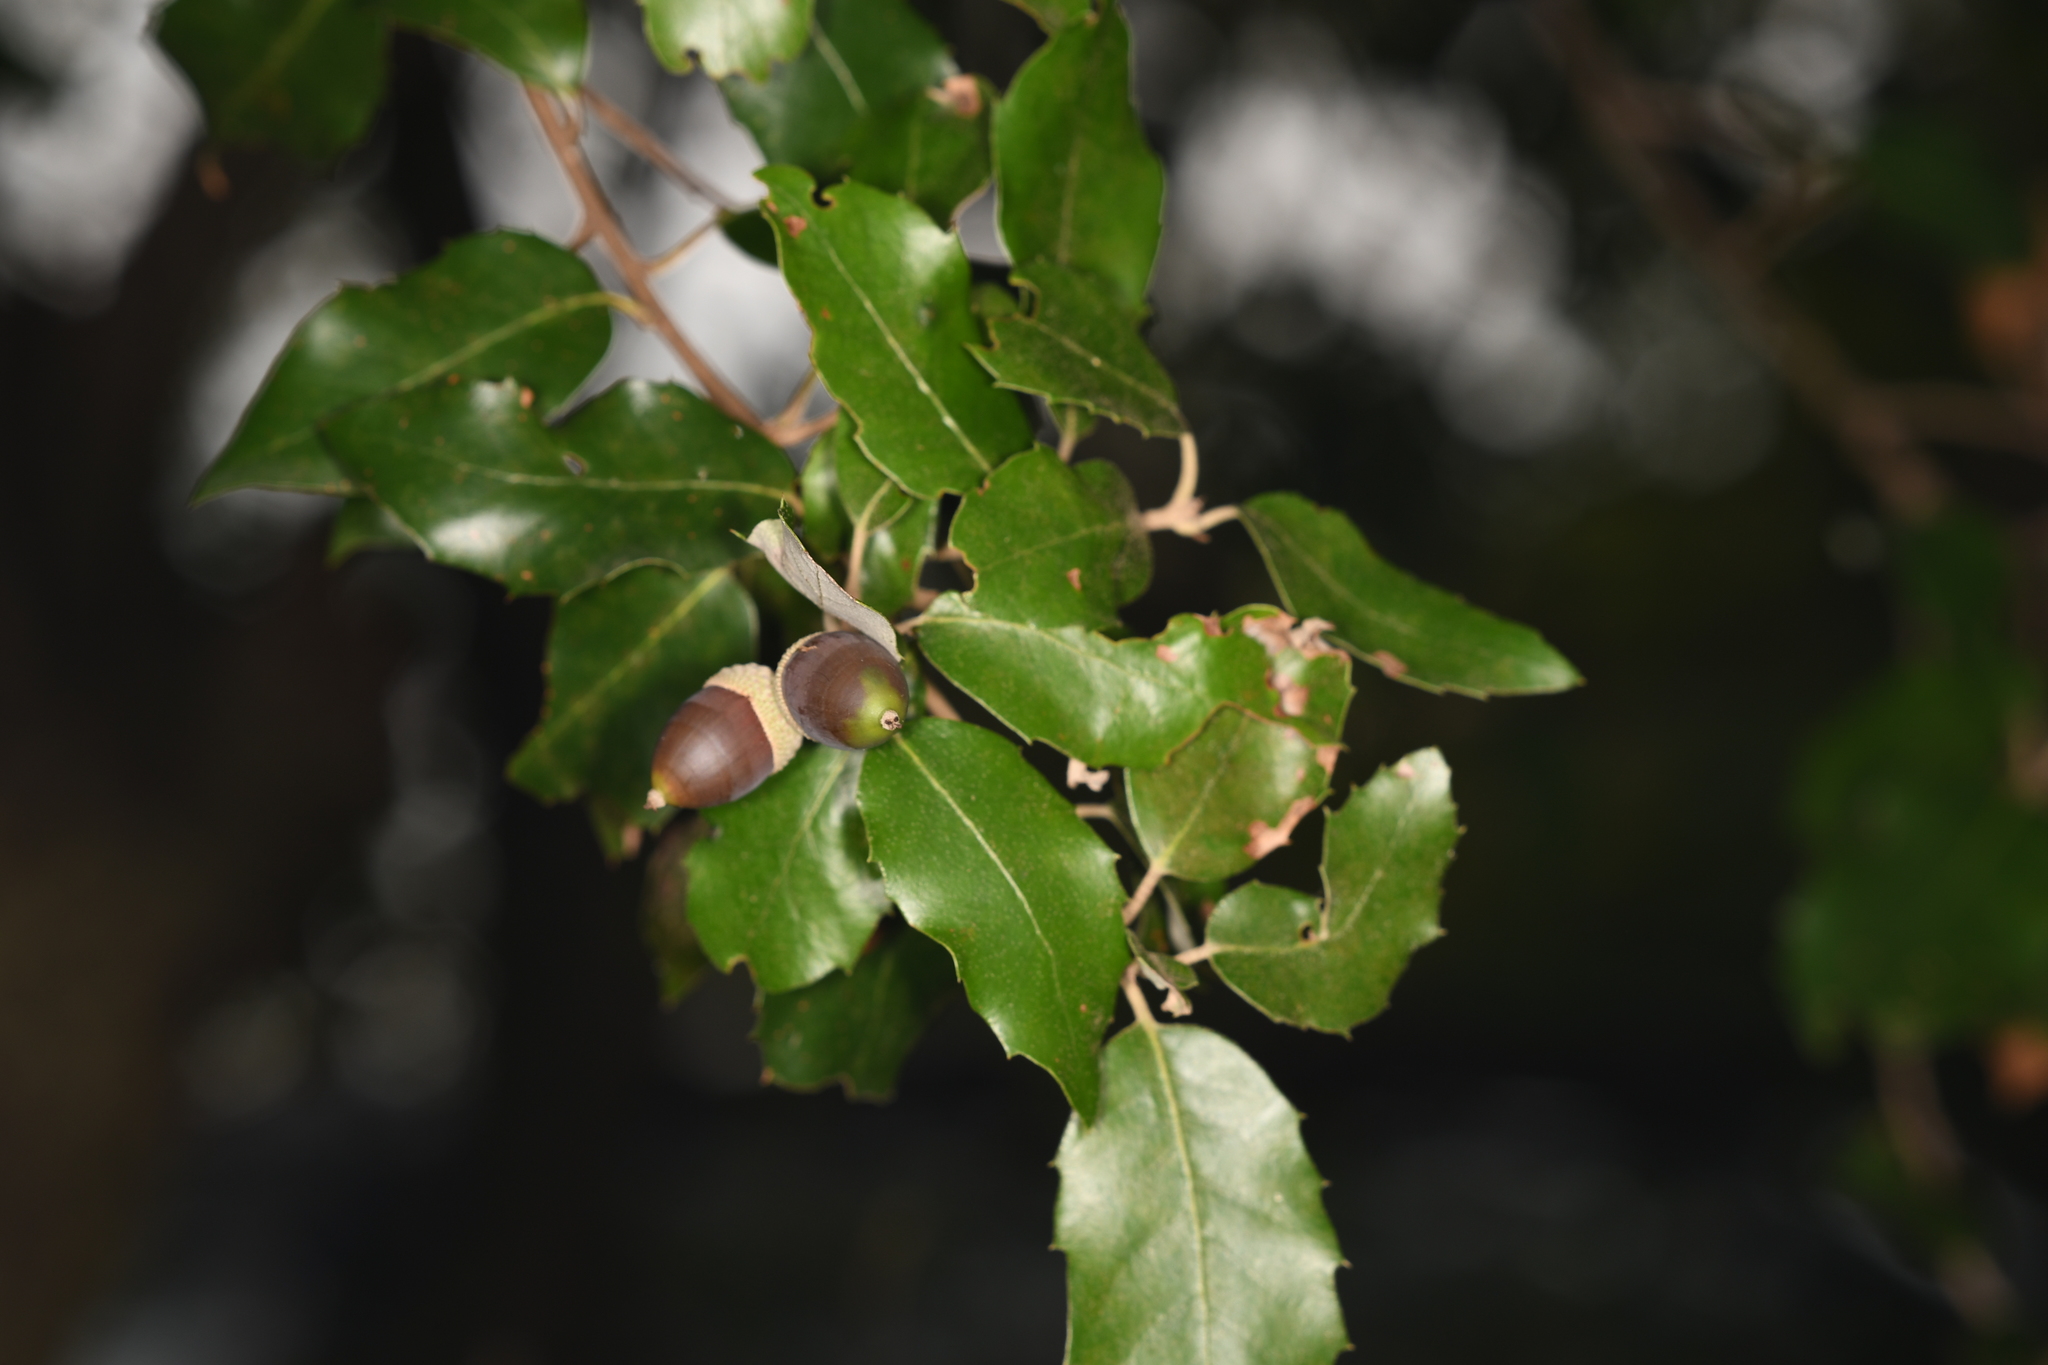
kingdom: Plantae
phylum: Tracheophyta
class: Magnoliopsida
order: Fagales
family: Fagaceae
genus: Quercus
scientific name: Quercus ilex
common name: Evergreen oak
